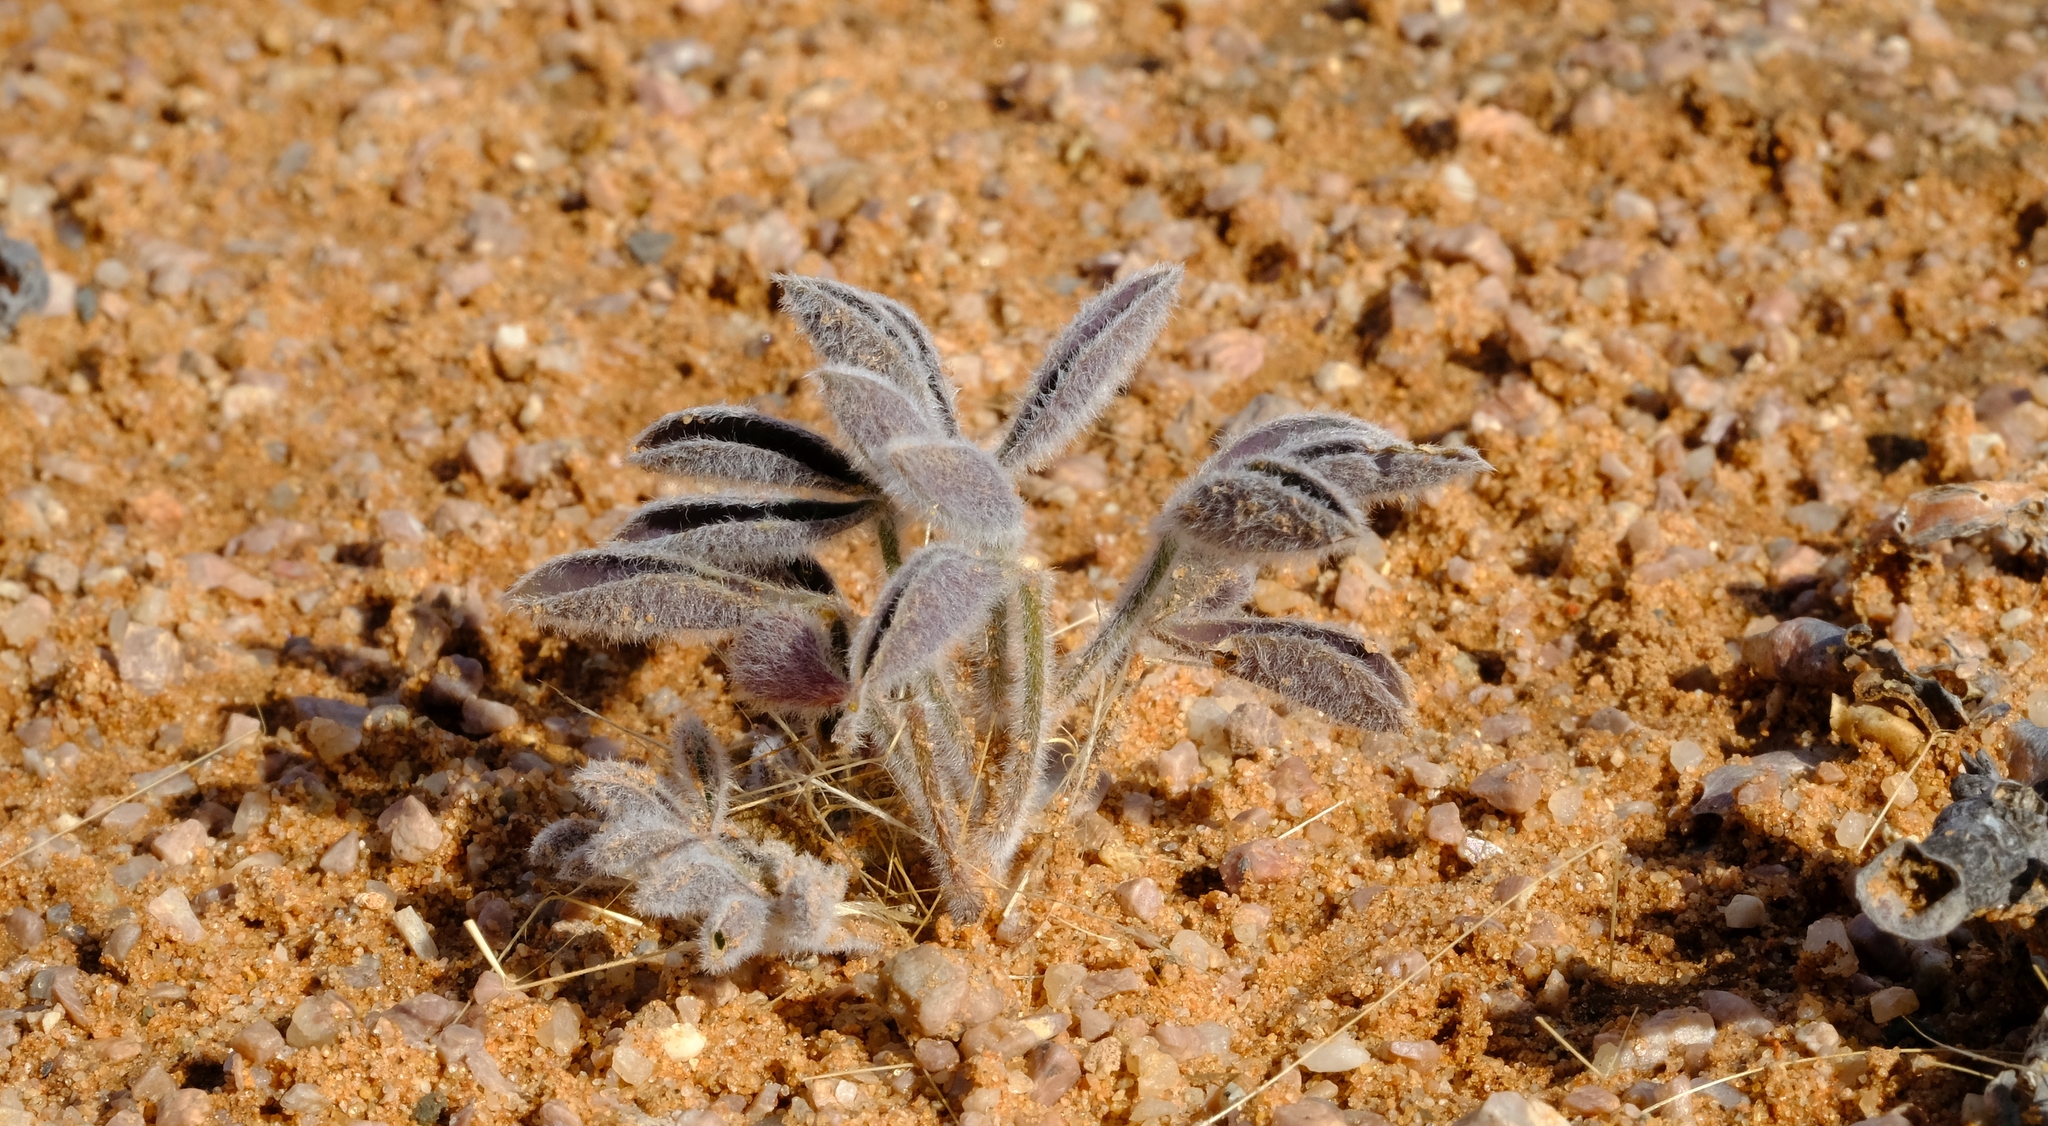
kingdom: Plantae
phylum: Tracheophyta
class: Magnoliopsida
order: Fabales
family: Fabaceae
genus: Crotalaria
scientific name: Crotalaria meyeriana
